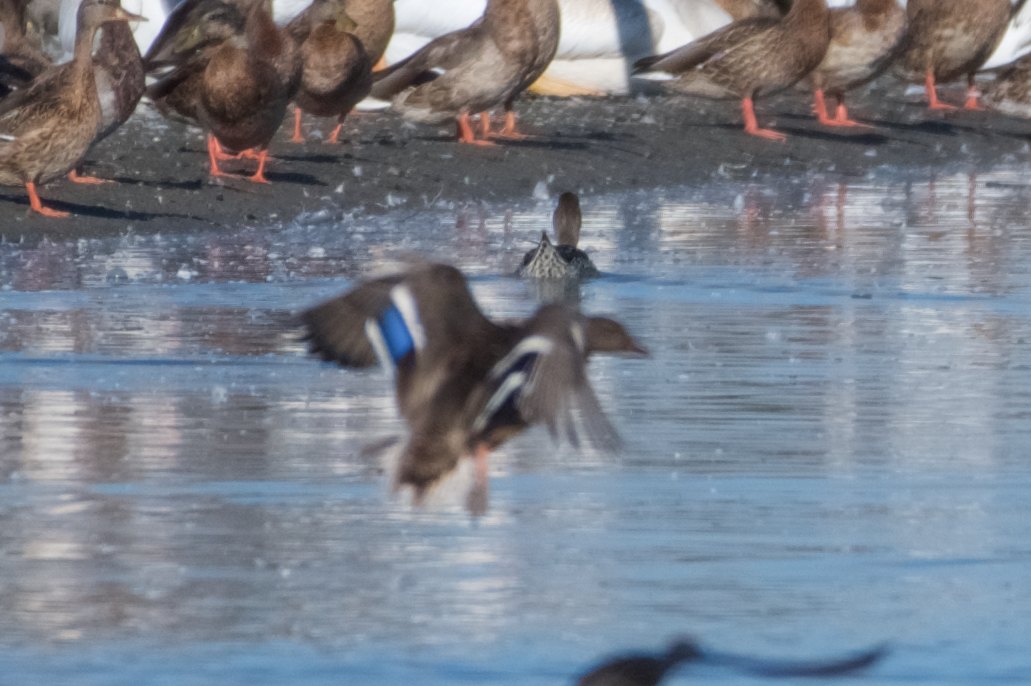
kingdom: Animalia
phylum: Chordata
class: Aves
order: Anseriformes
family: Anatidae
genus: Anas
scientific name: Anas platyrhynchos
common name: Mallard
